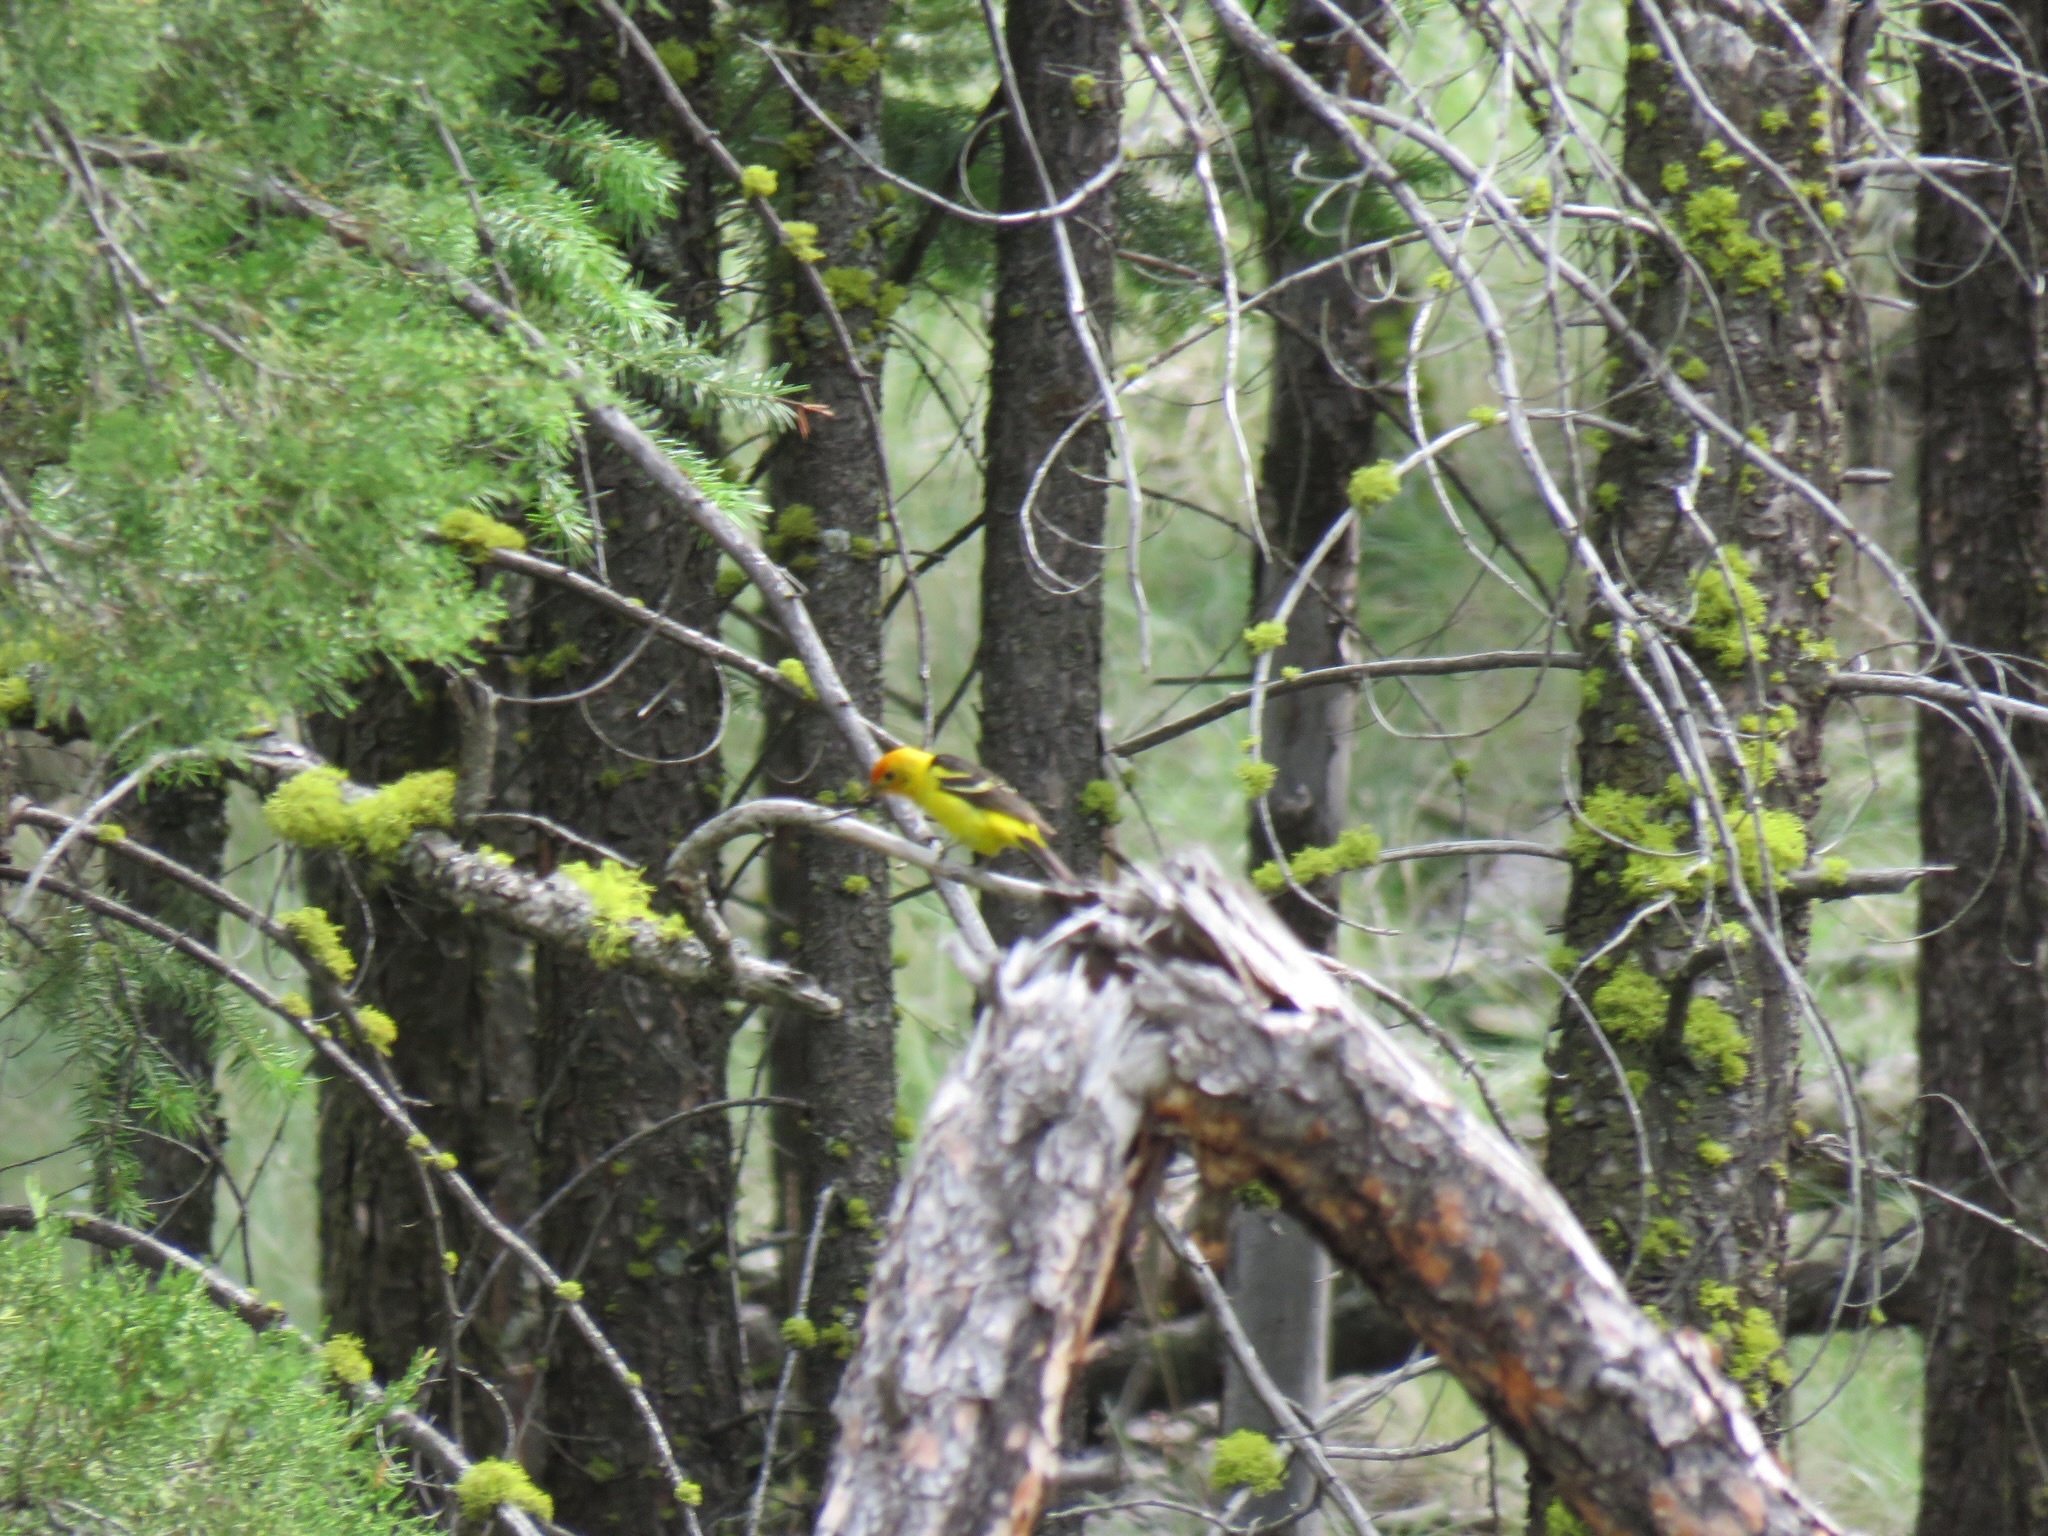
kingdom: Animalia
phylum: Chordata
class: Aves
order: Passeriformes
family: Cardinalidae
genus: Piranga
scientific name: Piranga ludoviciana
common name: Western tanager
